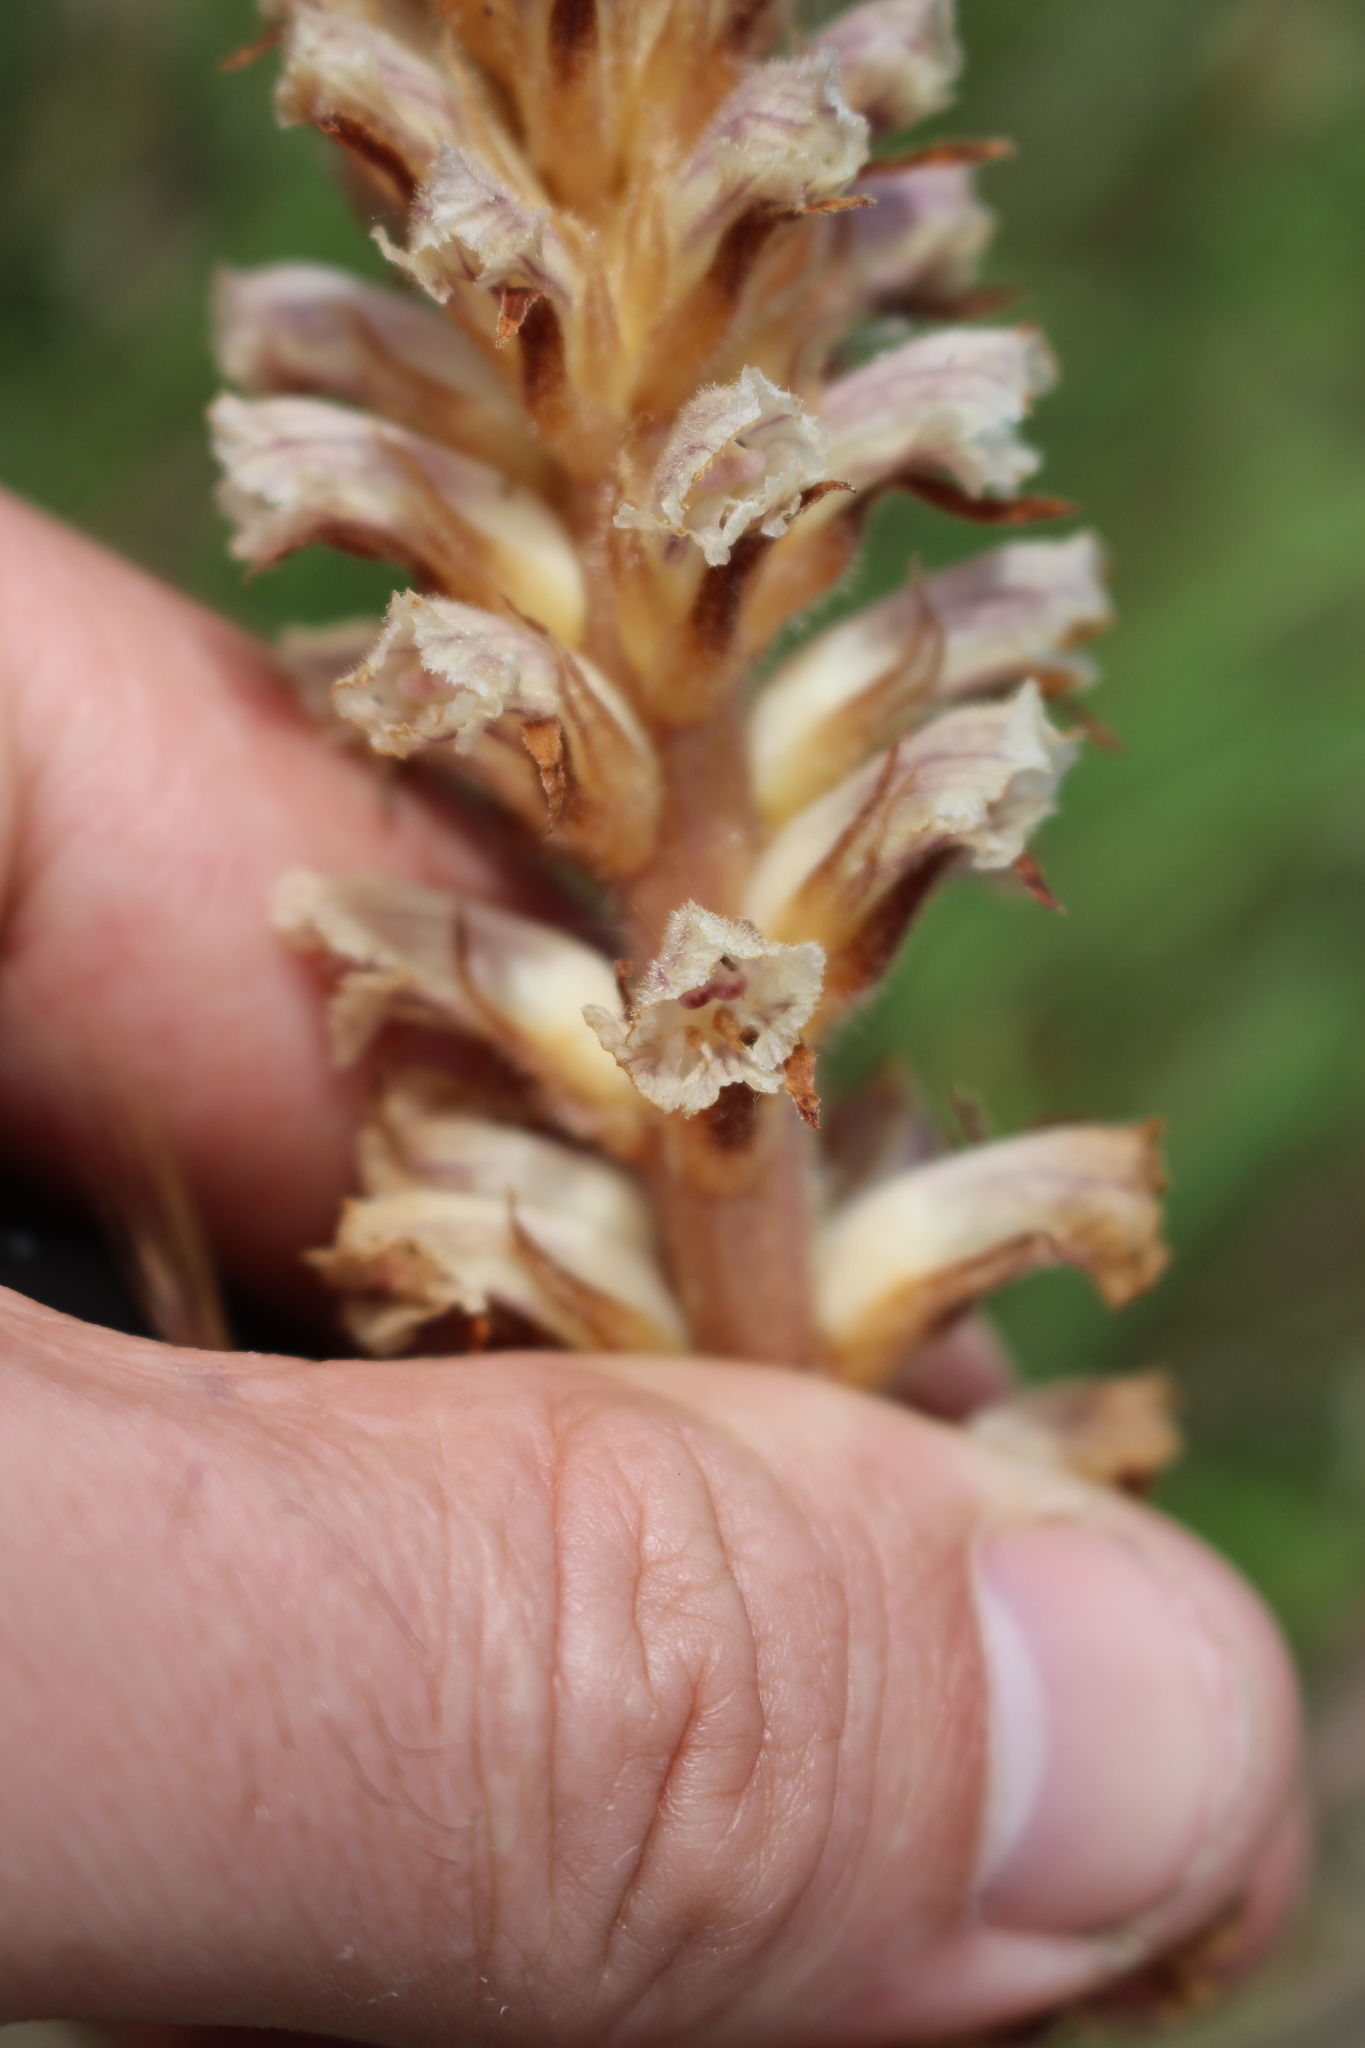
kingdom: Plantae
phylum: Tracheophyta
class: Magnoliopsida
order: Lamiales
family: Orobanchaceae
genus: Orobanche
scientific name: Orobanche minor
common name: Common broomrape
